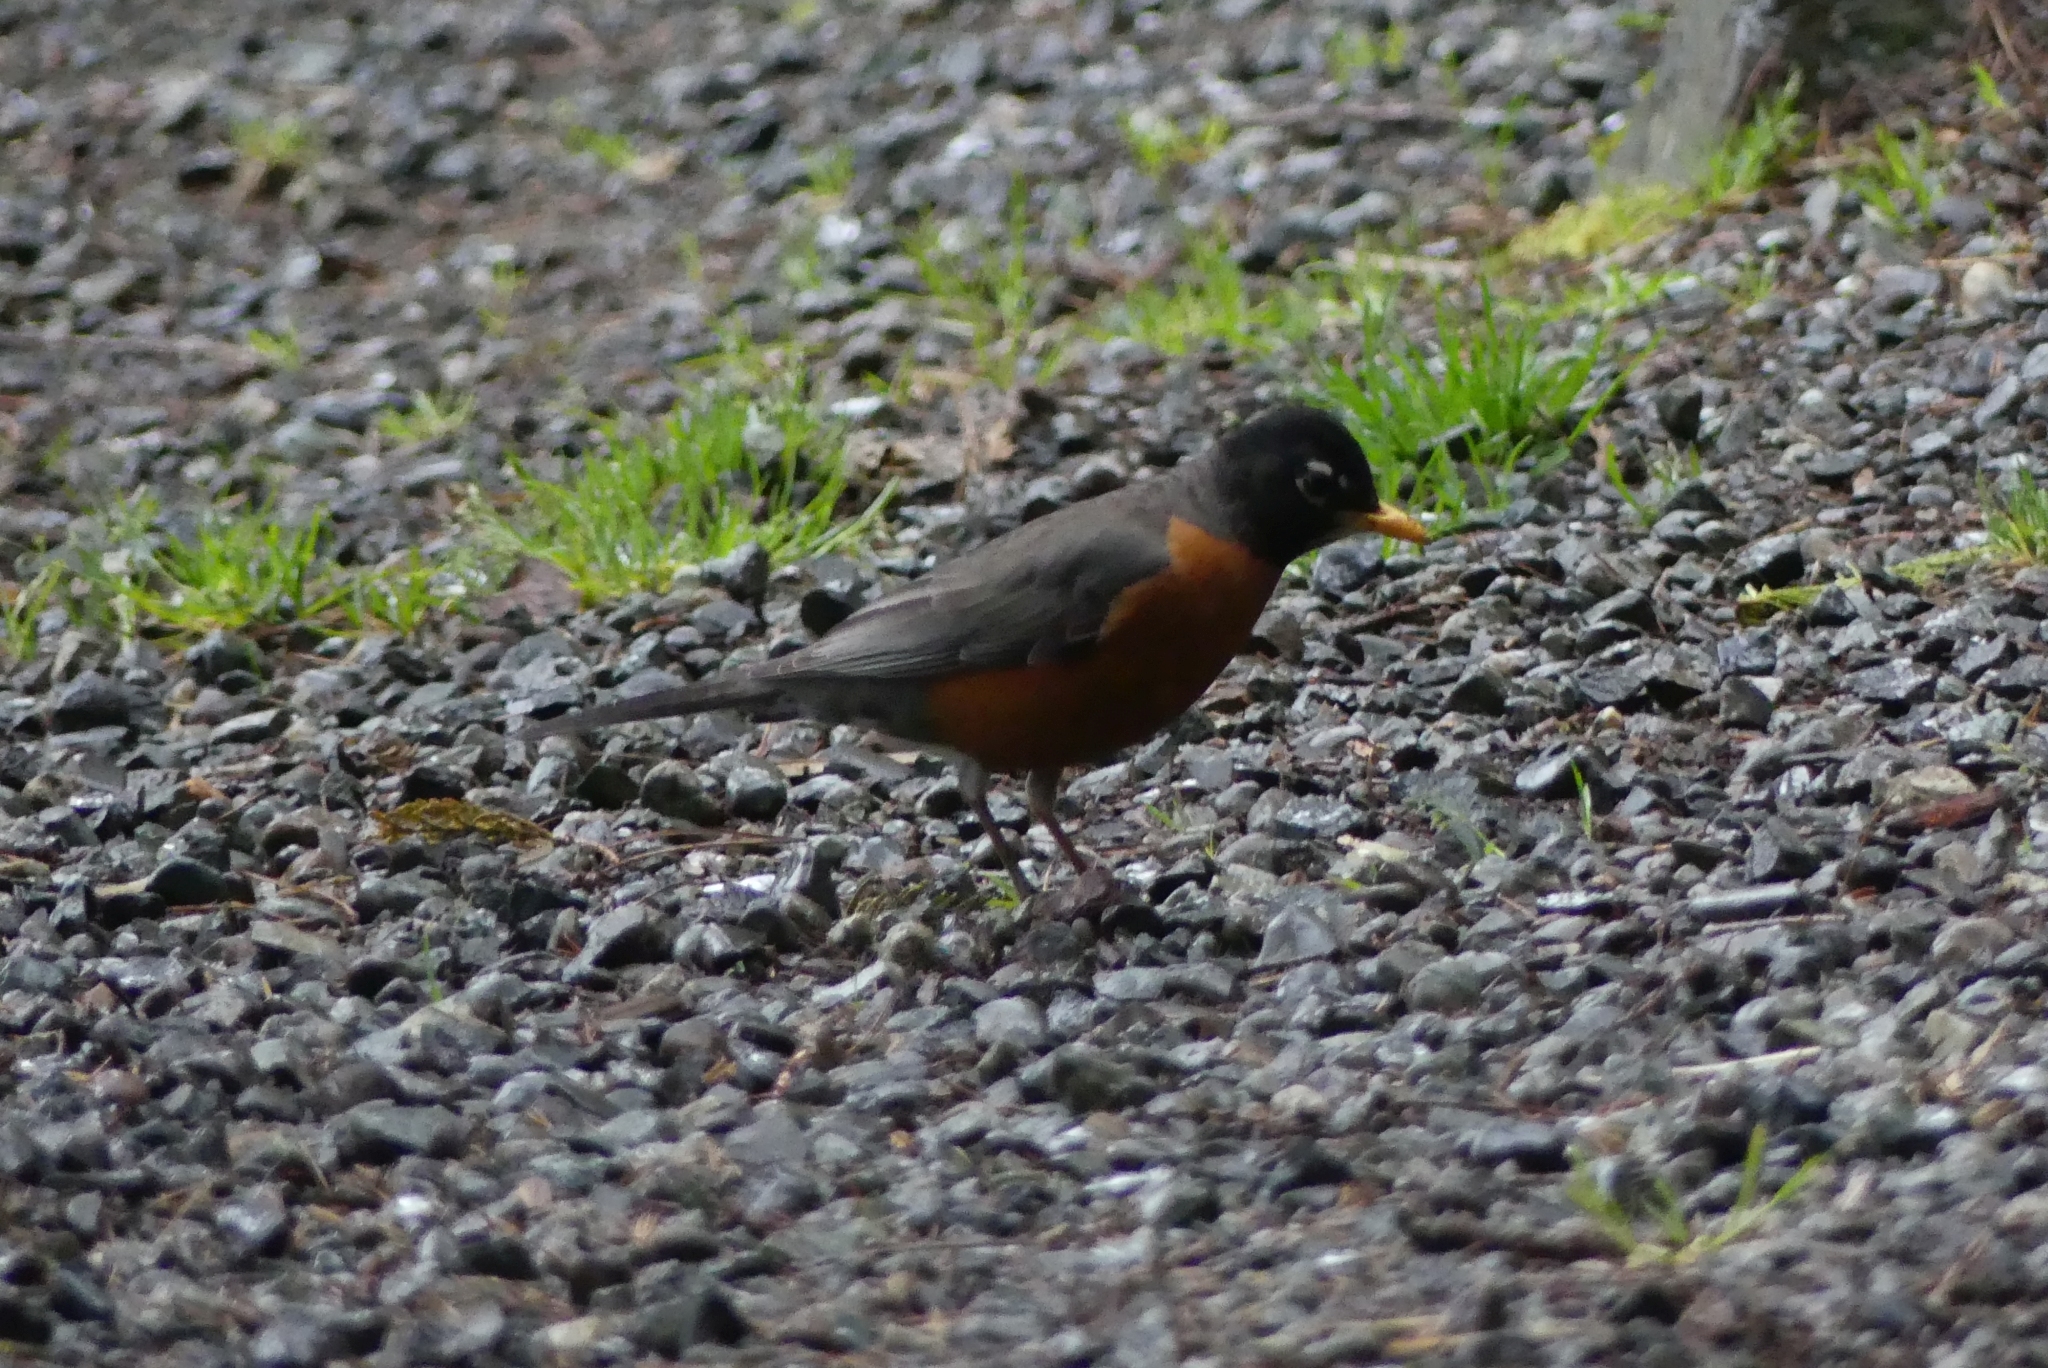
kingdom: Animalia
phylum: Chordata
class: Aves
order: Passeriformes
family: Turdidae
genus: Turdus
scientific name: Turdus migratorius
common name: American robin
